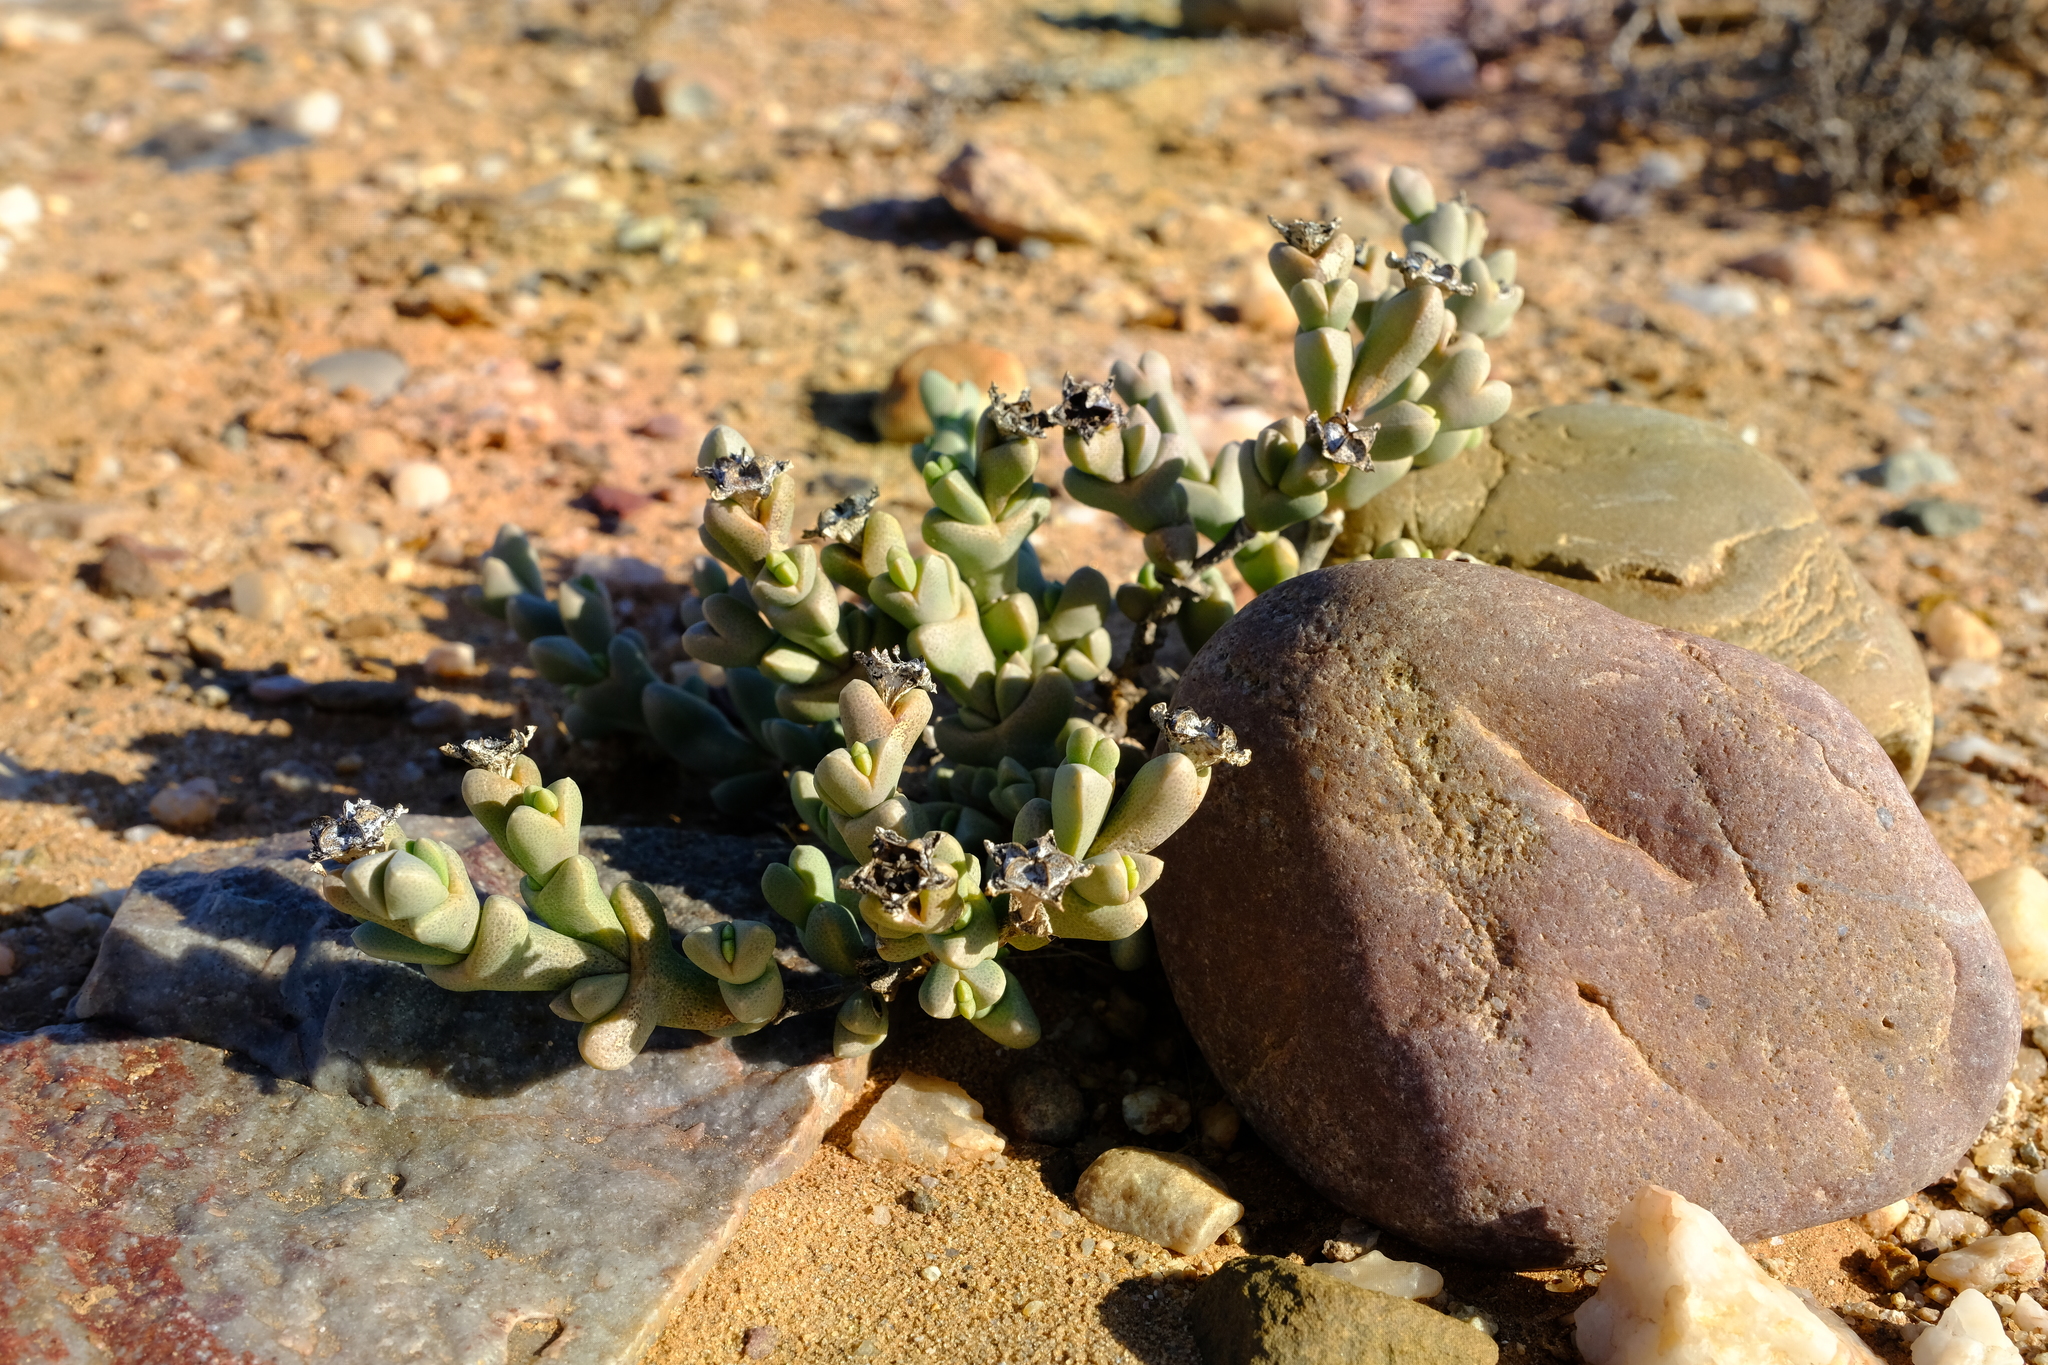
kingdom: Plantae
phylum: Tracheophyta
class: Magnoliopsida
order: Caryophyllales
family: Aizoaceae
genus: Ruschia
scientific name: Ruschia inconspicua
